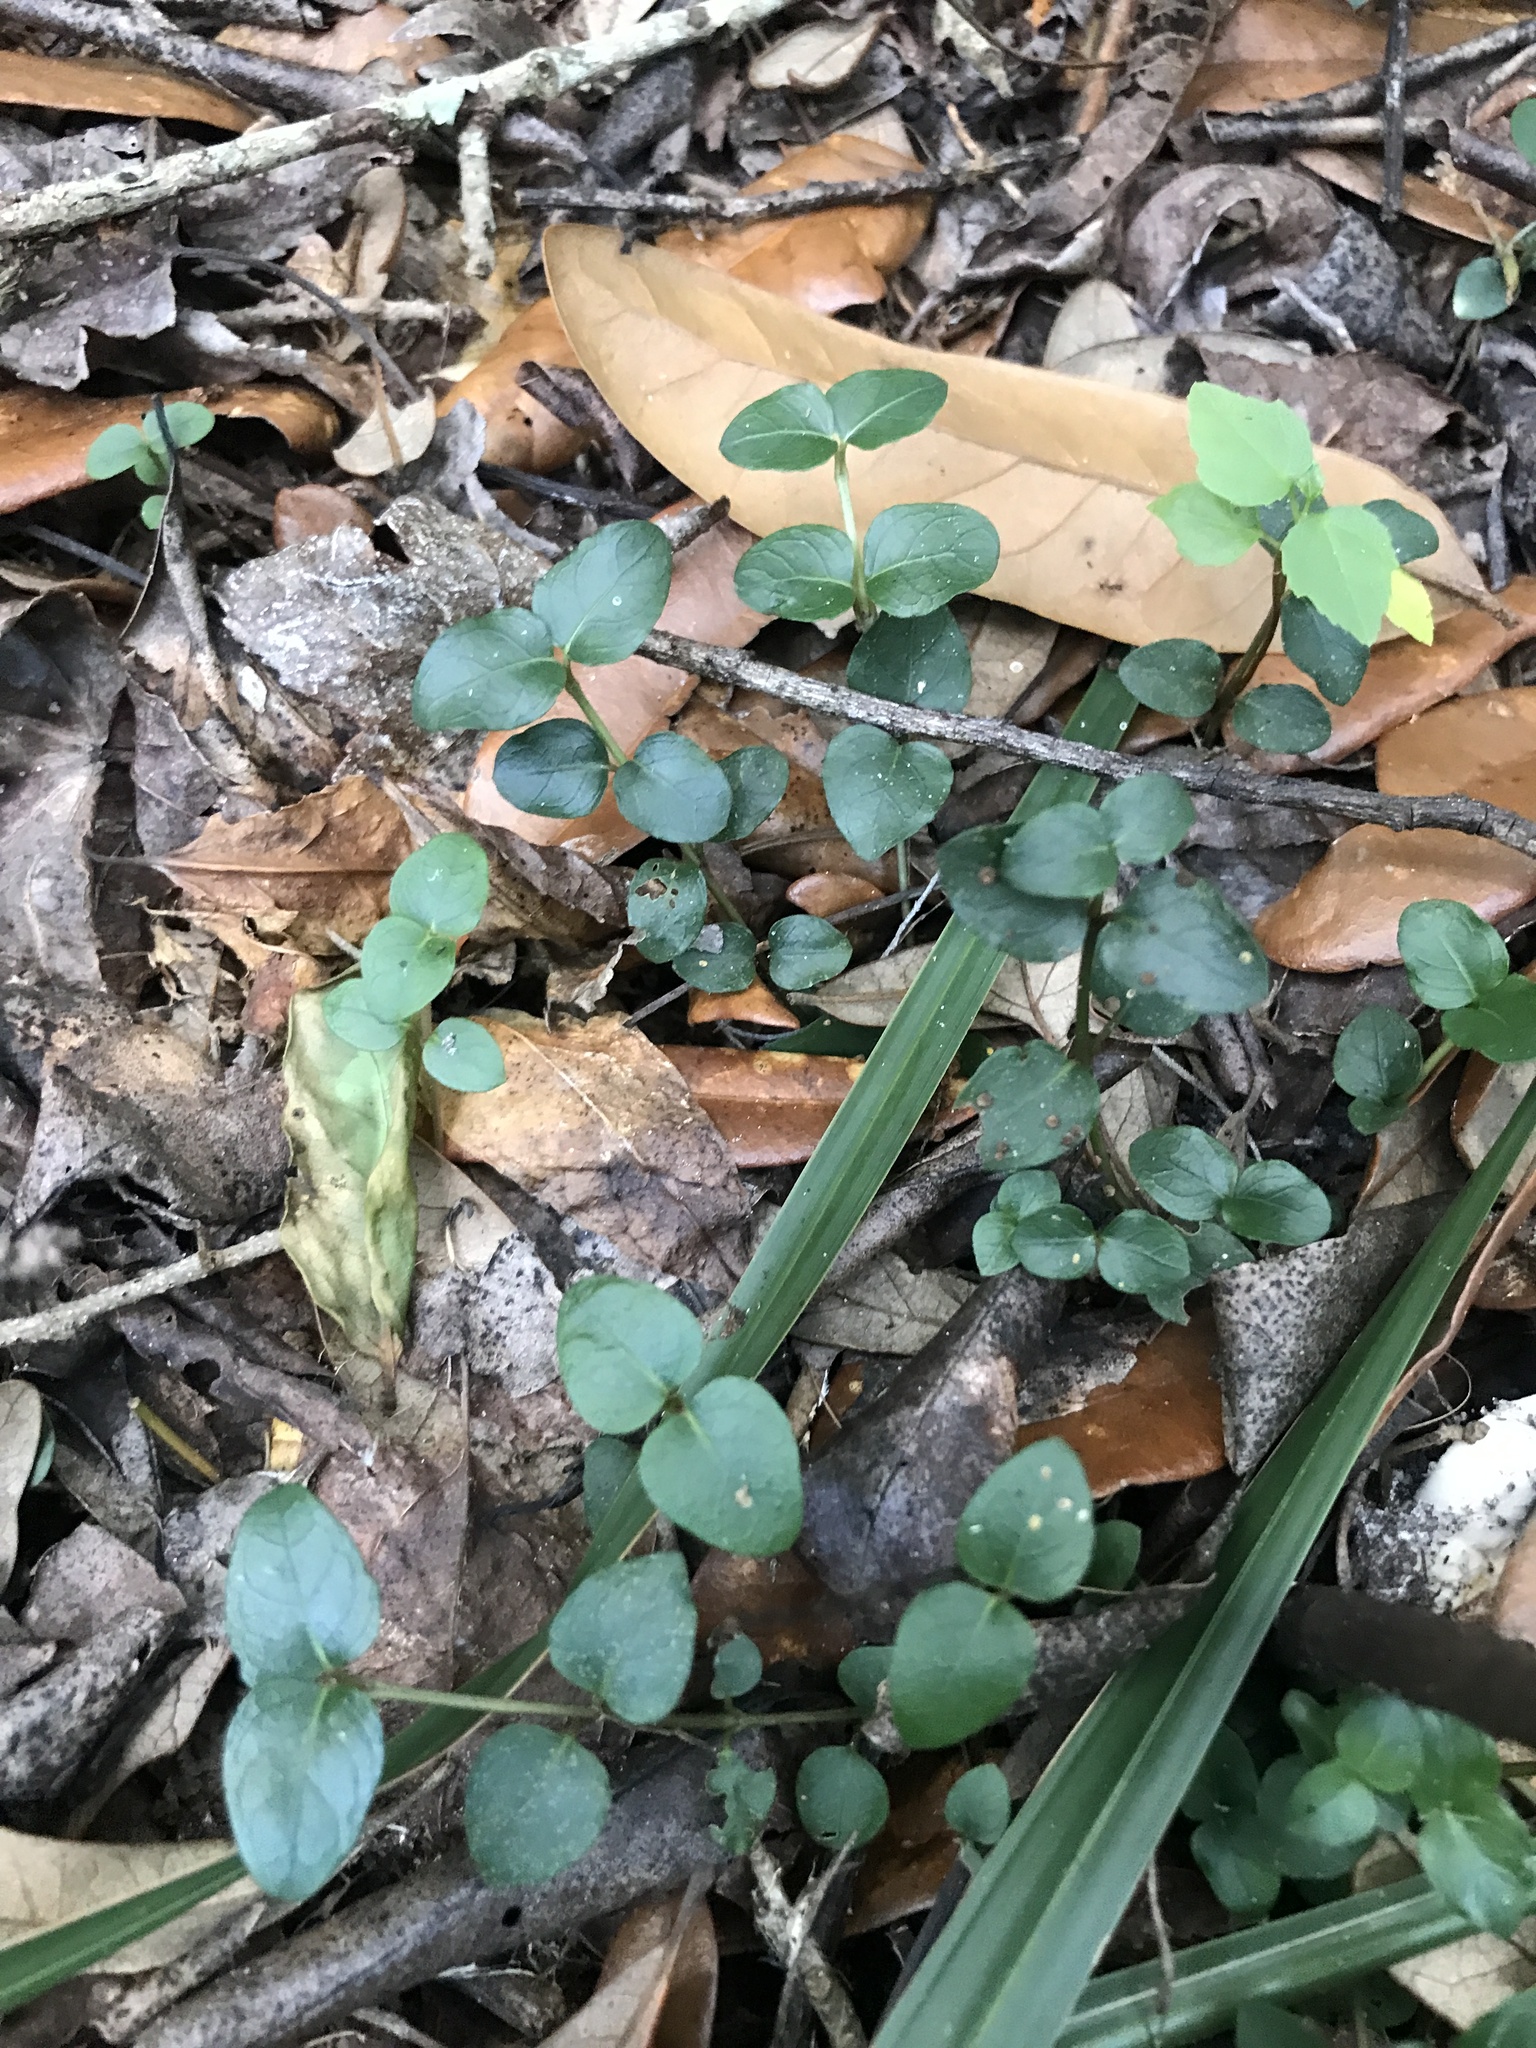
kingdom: Plantae
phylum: Tracheophyta
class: Magnoliopsida
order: Gentianales
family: Rubiaceae
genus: Mitchella
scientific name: Mitchella repens
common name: Partridge-berry
